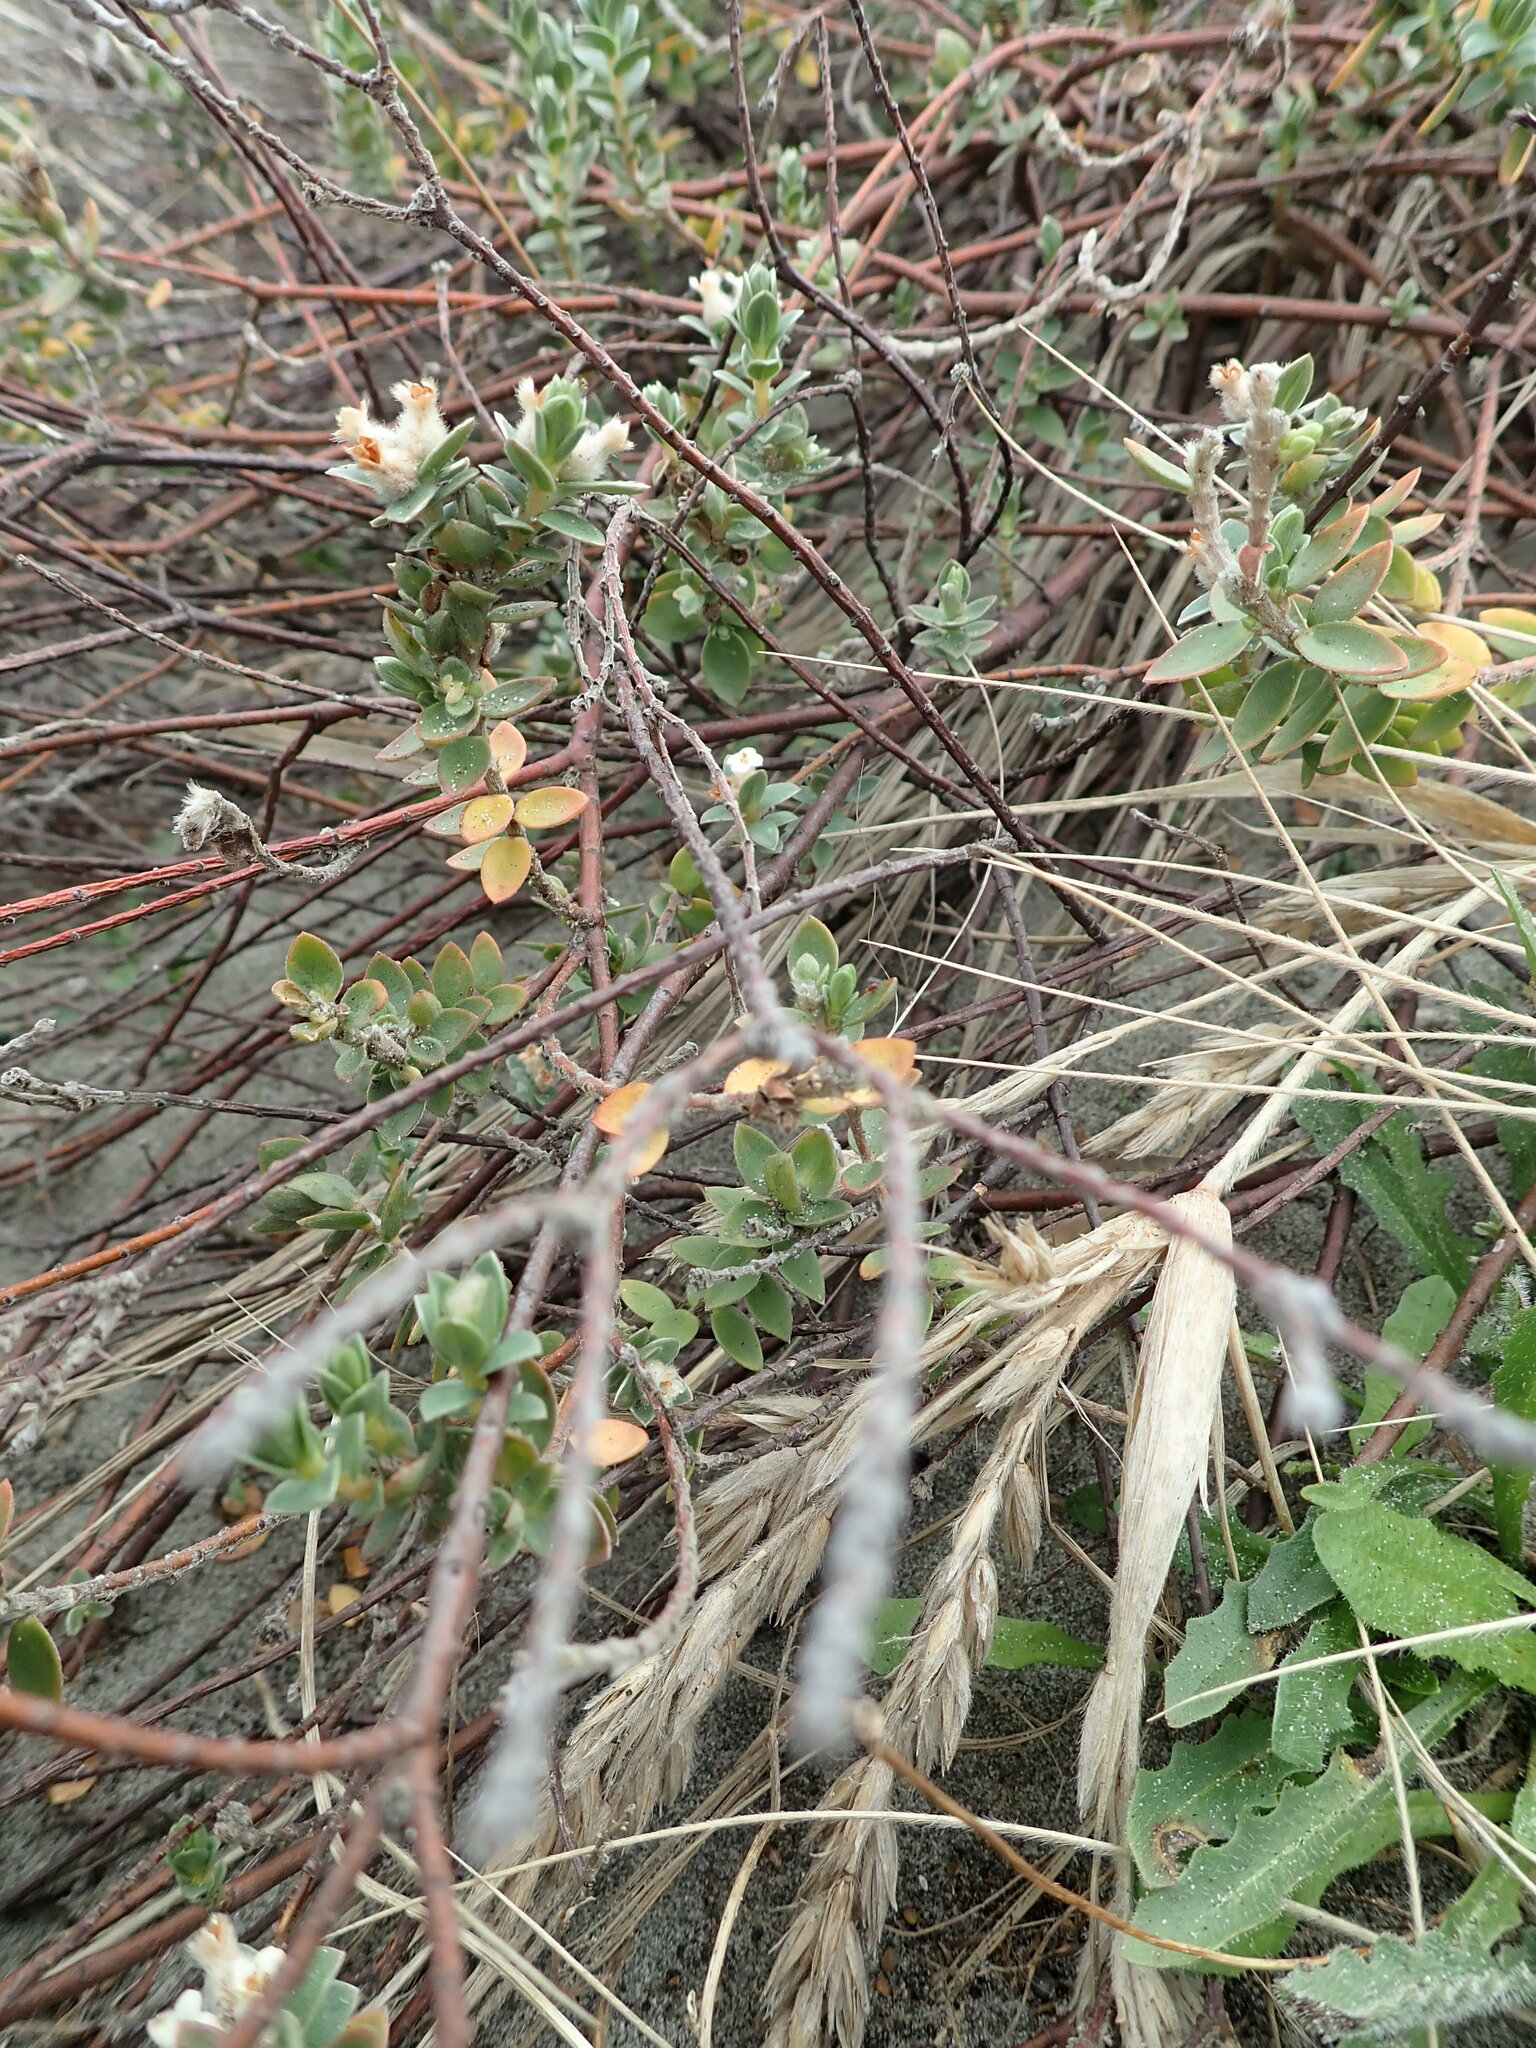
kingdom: Plantae
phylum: Tracheophyta
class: Magnoliopsida
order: Malvales
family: Thymelaeaceae
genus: Pimelea
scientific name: Pimelea villosa
